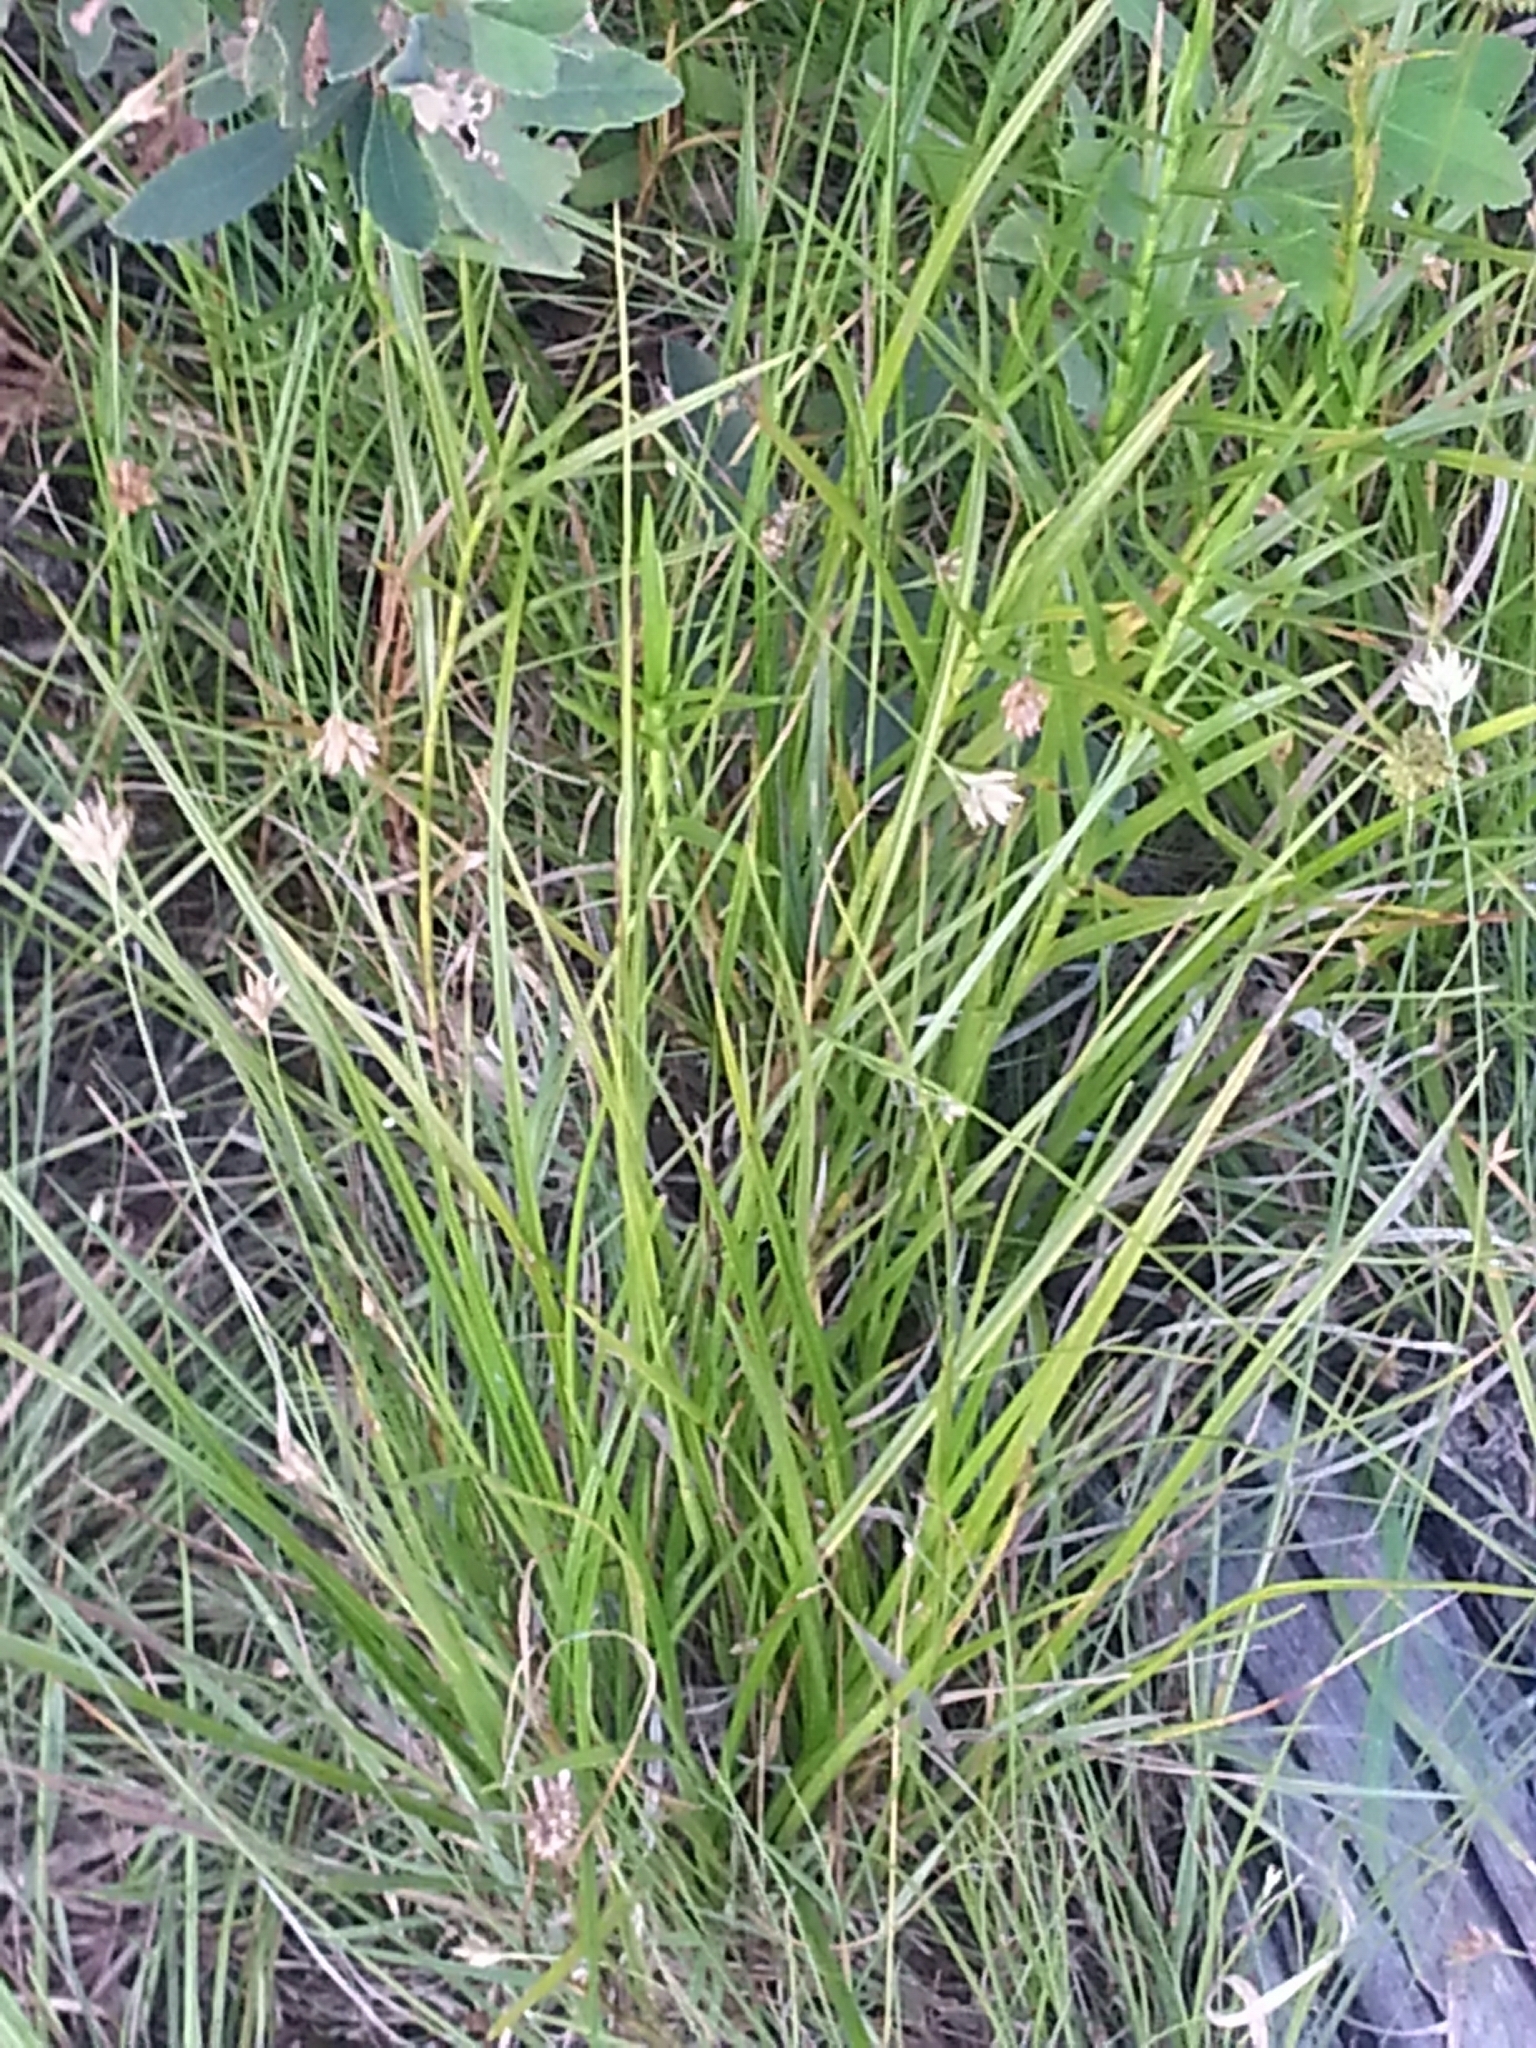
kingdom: Plantae
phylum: Tracheophyta
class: Liliopsida
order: Poales
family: Cyperaceae
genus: Rhynchospora
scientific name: Rhynchospora alba
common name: White beak-sedge
